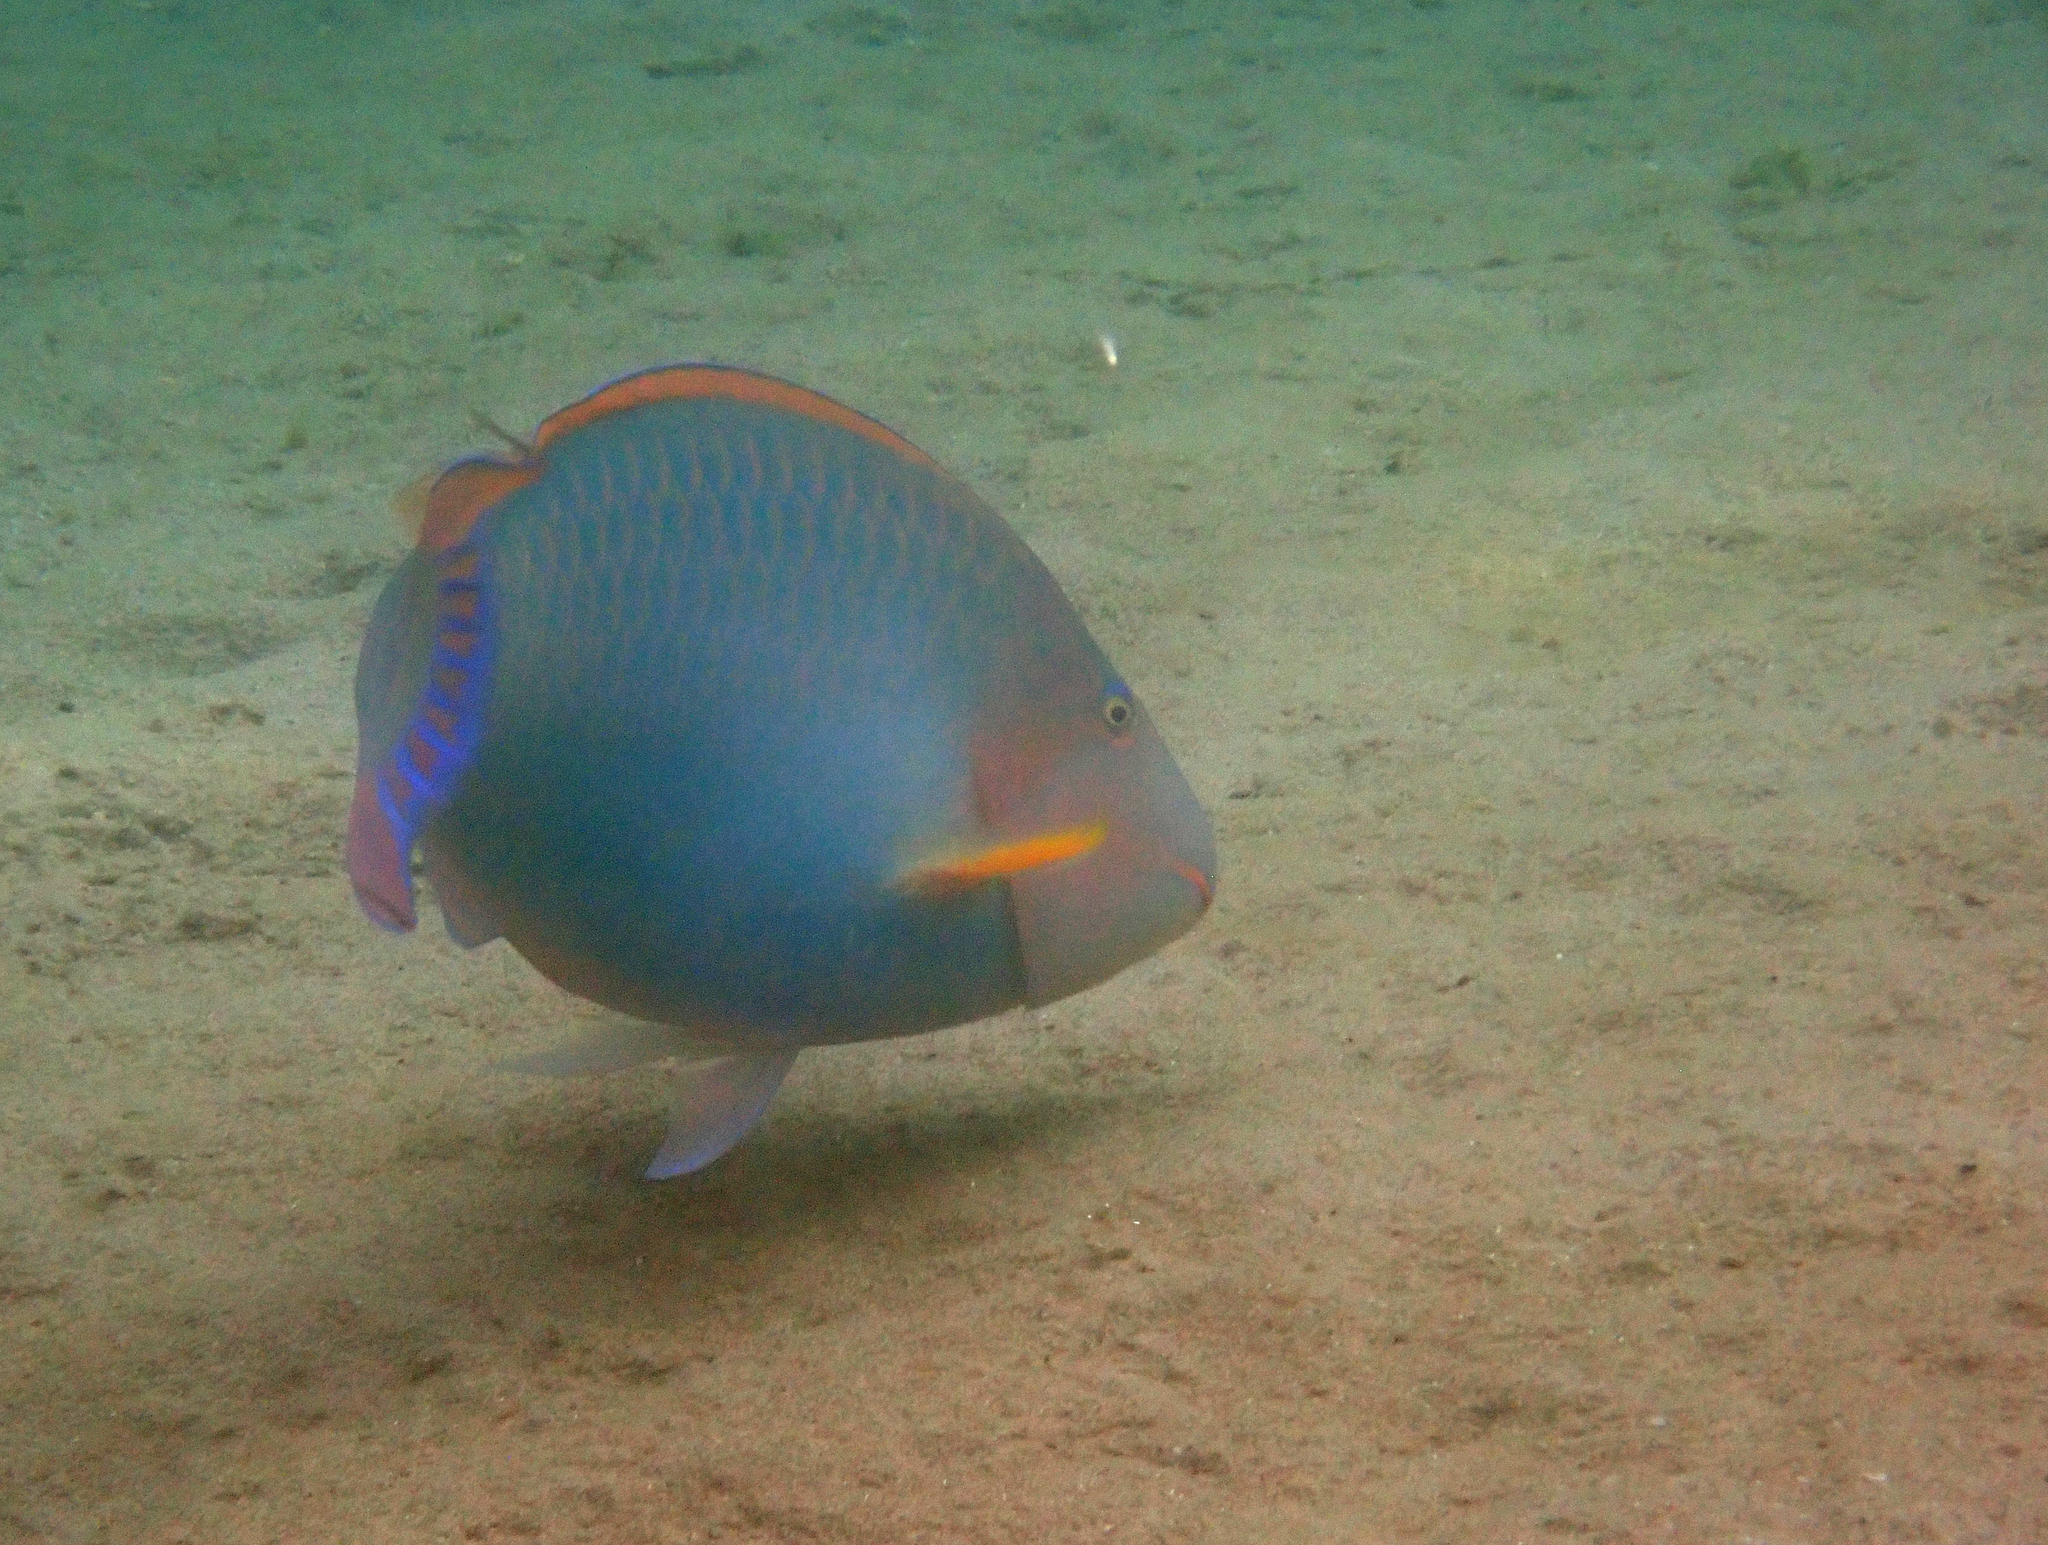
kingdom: Animalia
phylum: Chordata
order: Perciformes
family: Scaridae
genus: Hipposcarus
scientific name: Hipposcarus harid
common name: Candelamoa parrotfish
